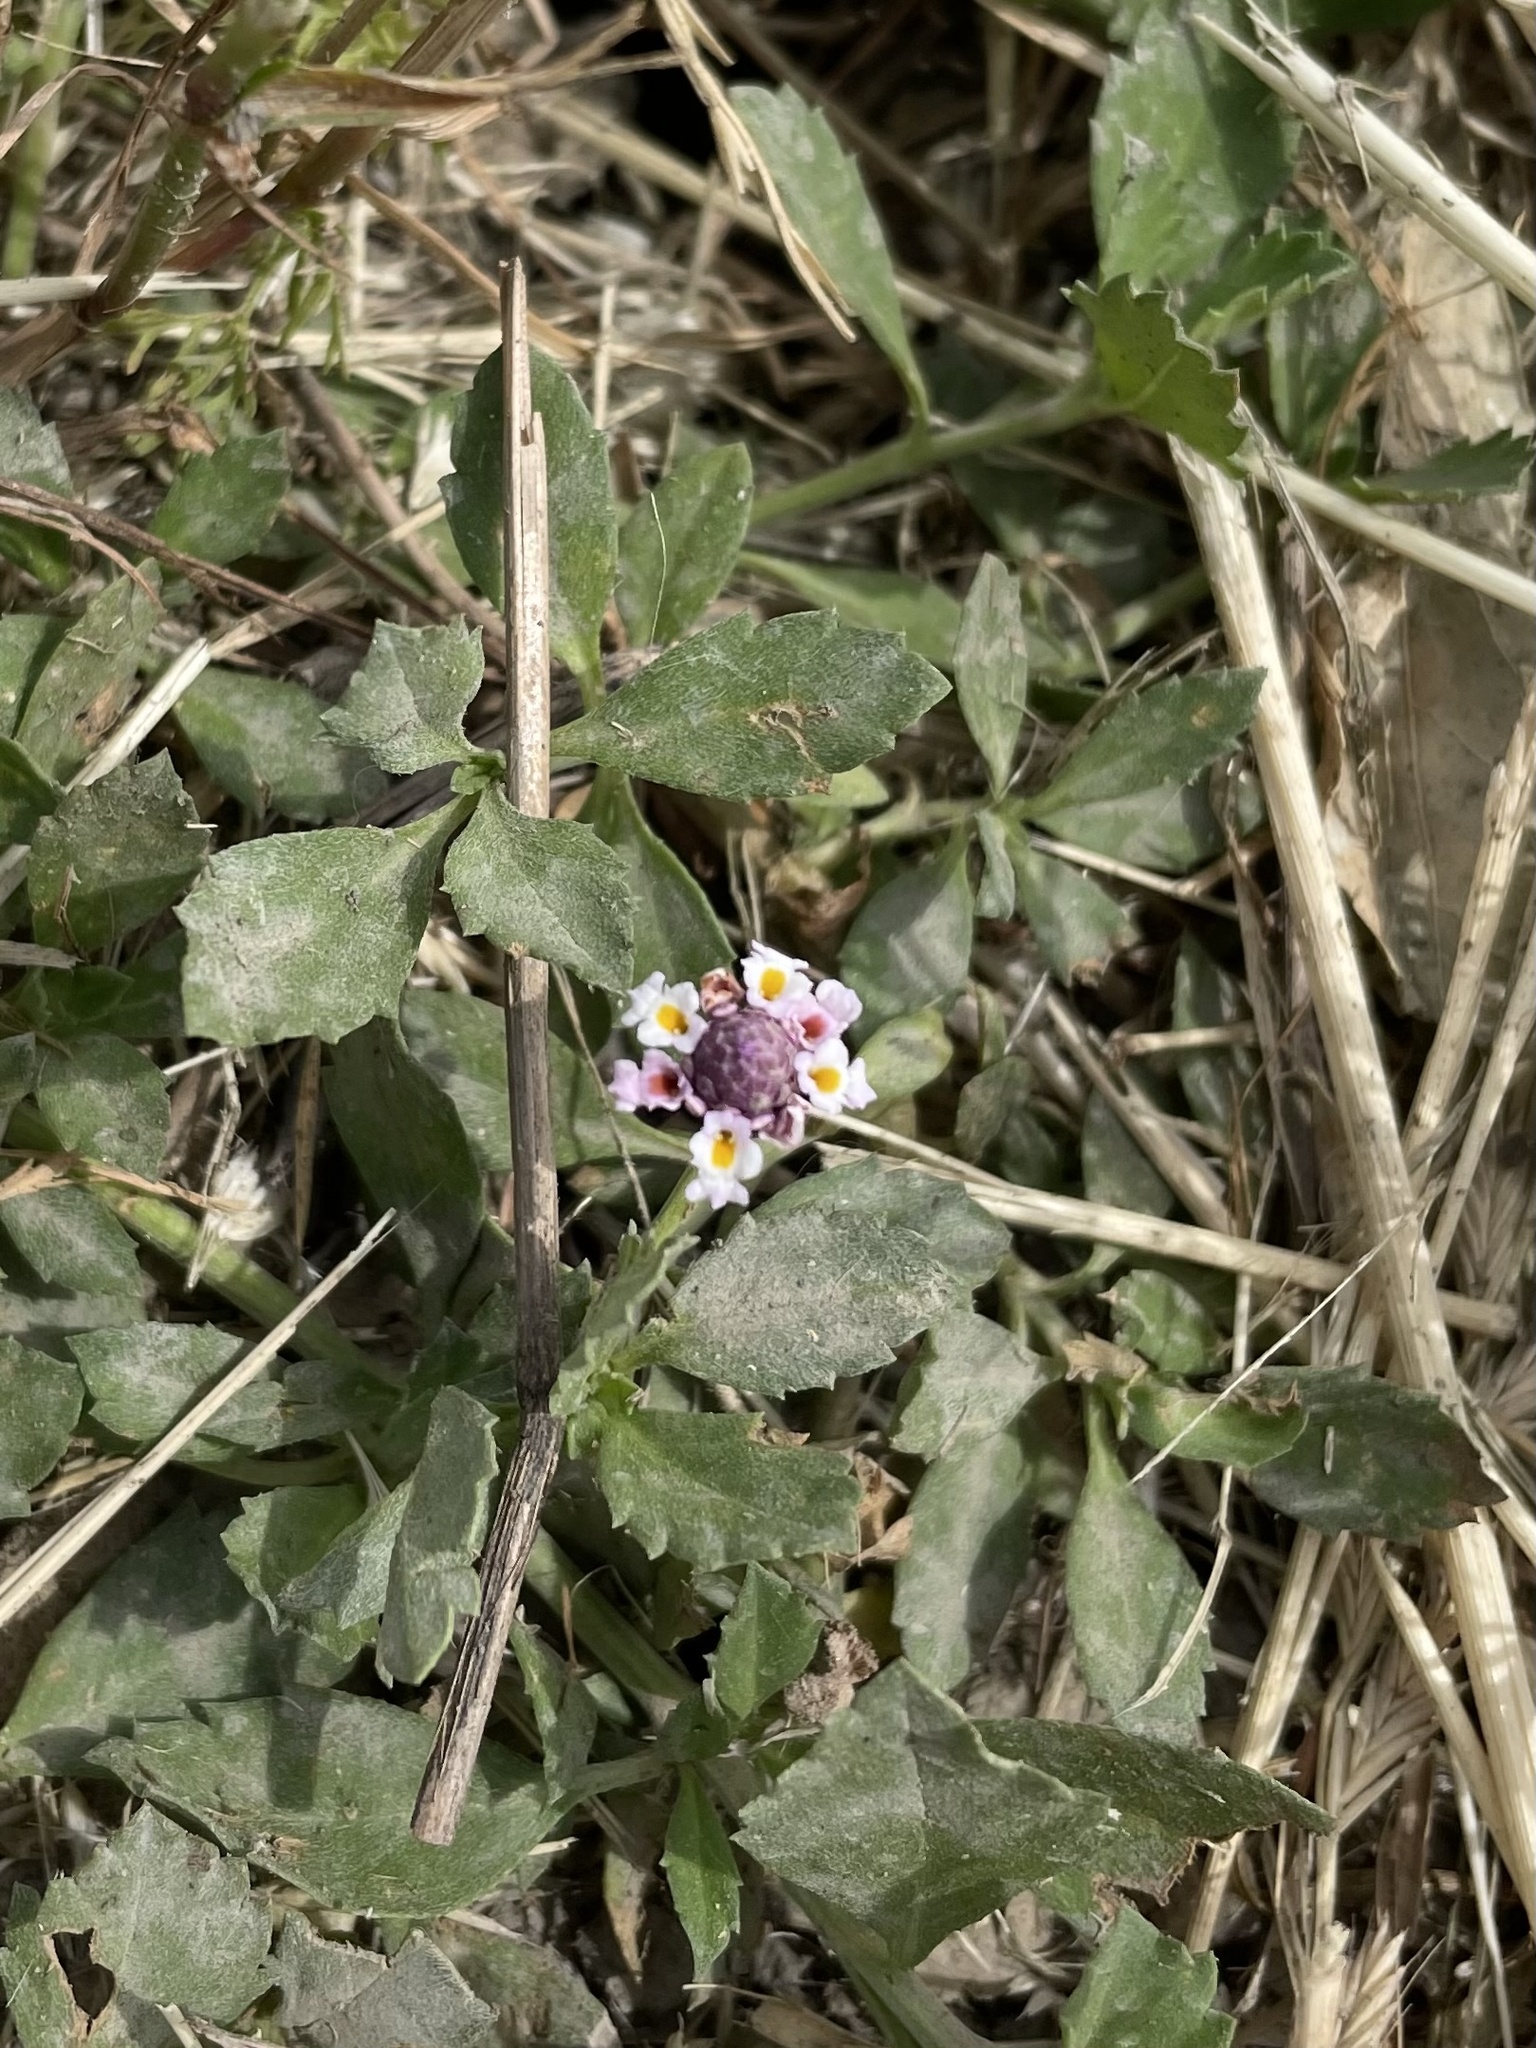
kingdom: Plantae
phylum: Tracheophyta
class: Magnoliopsida
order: Lamiales
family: Verbenaceae
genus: Phyla
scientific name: Phyla nodiflora
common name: Frogfruit
